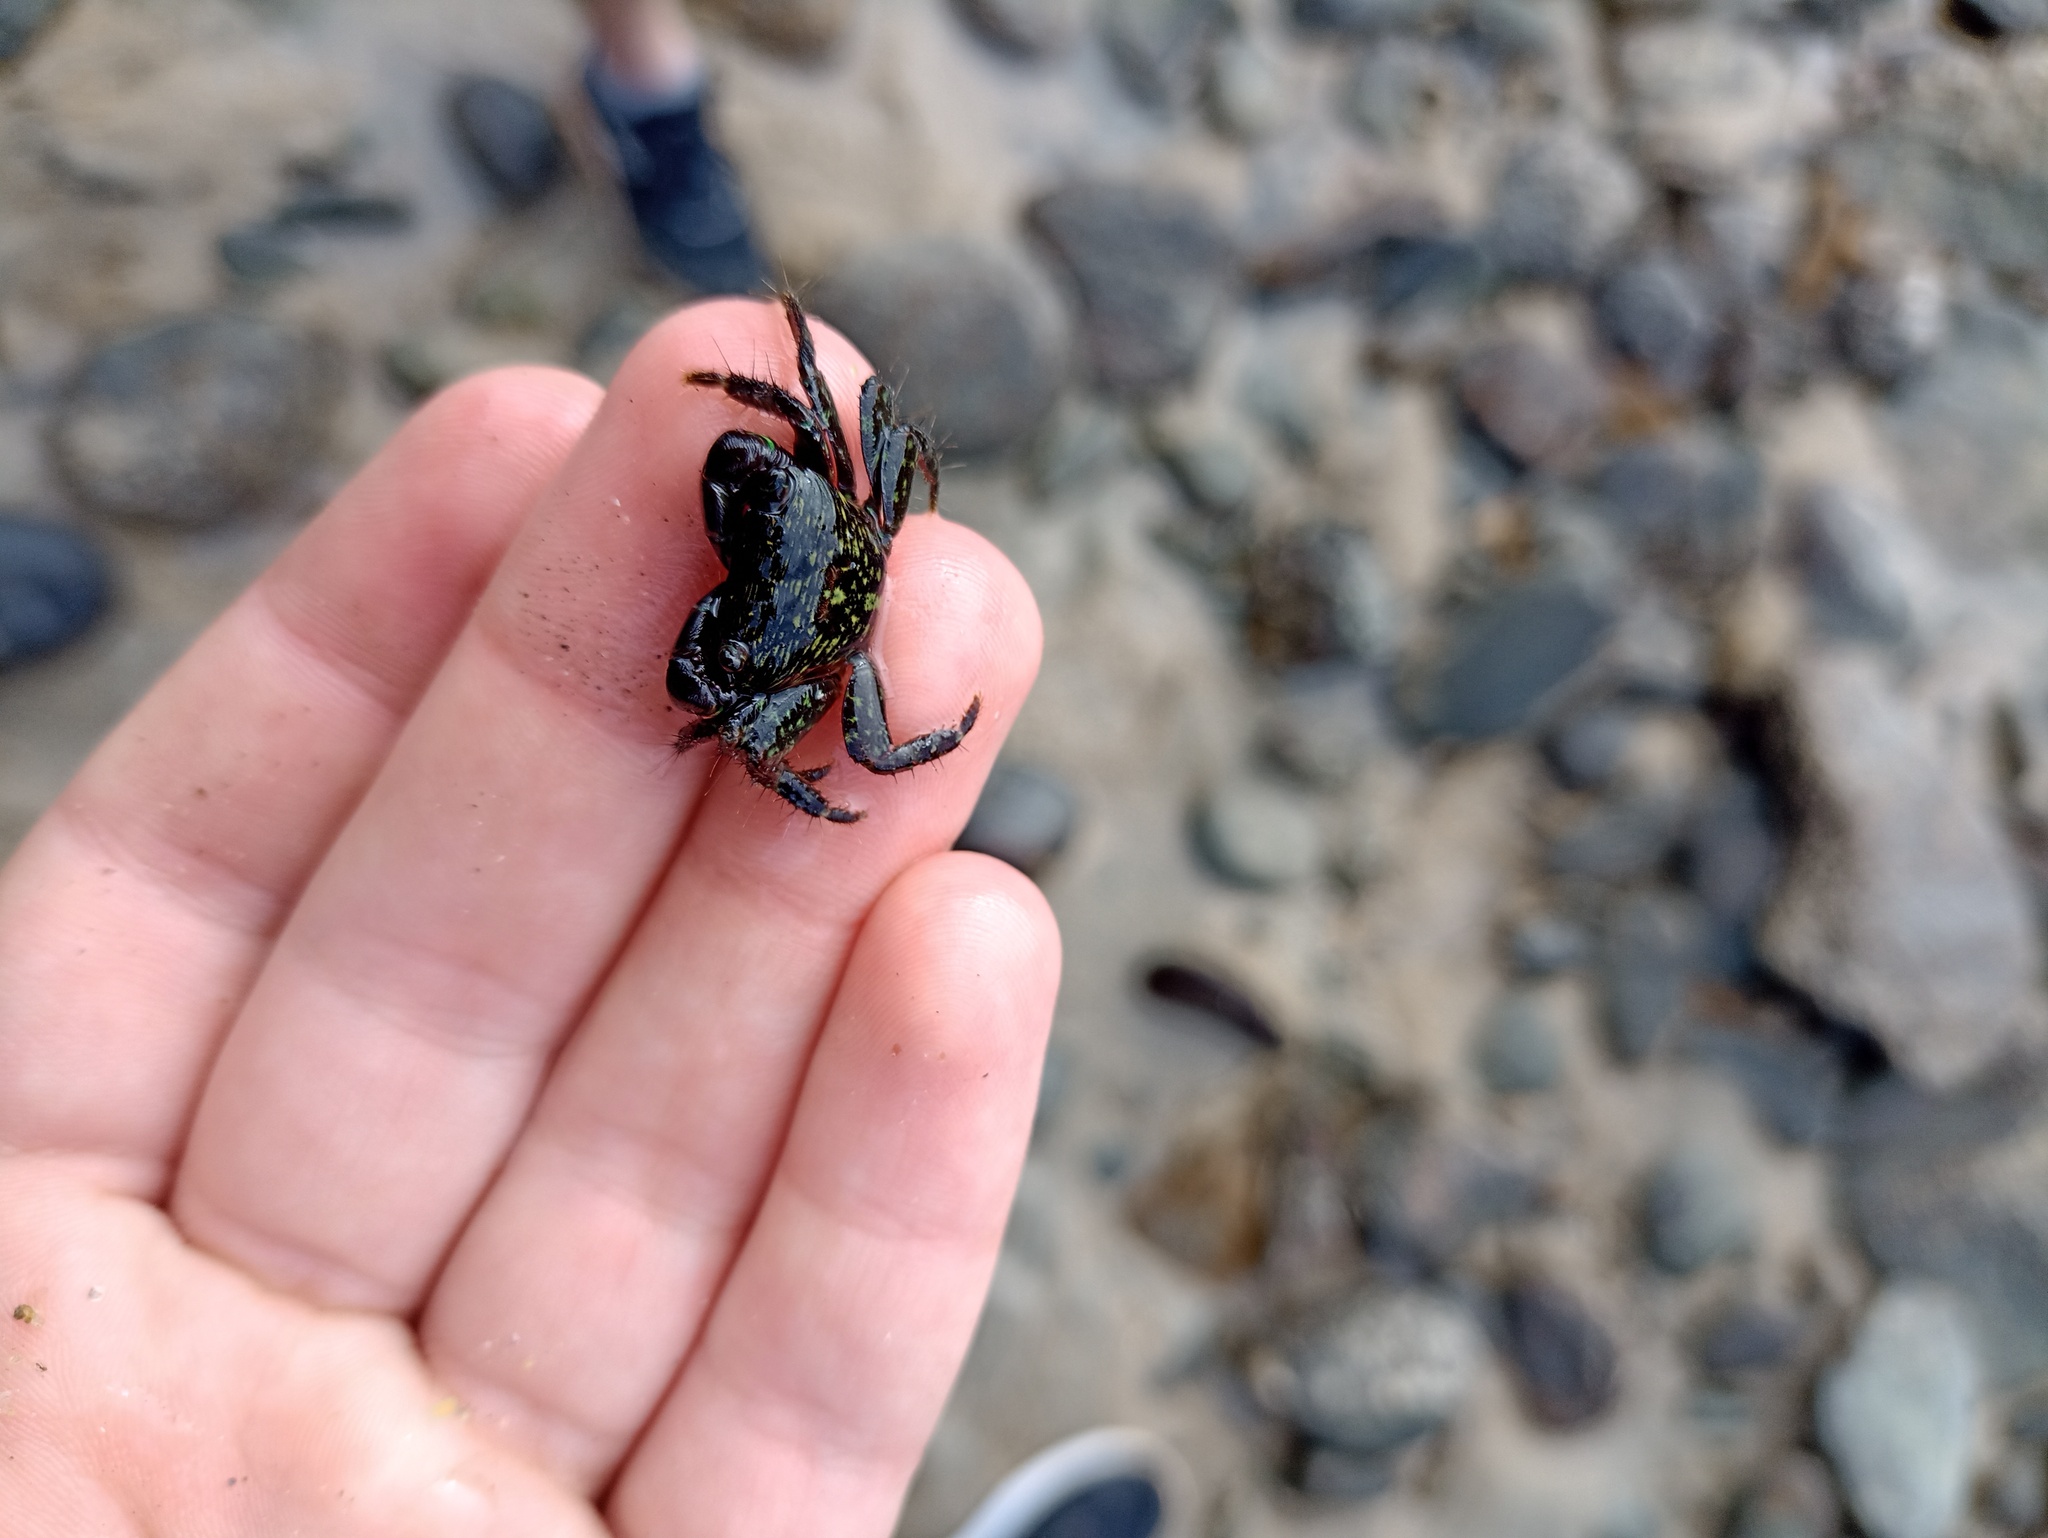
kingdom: Animalia
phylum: Arthropoda
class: Malacostraca
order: Decapoda
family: Grapsidae
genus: Pachygrapsus
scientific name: Pachygrapsus transversus
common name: Mottled shore crab
